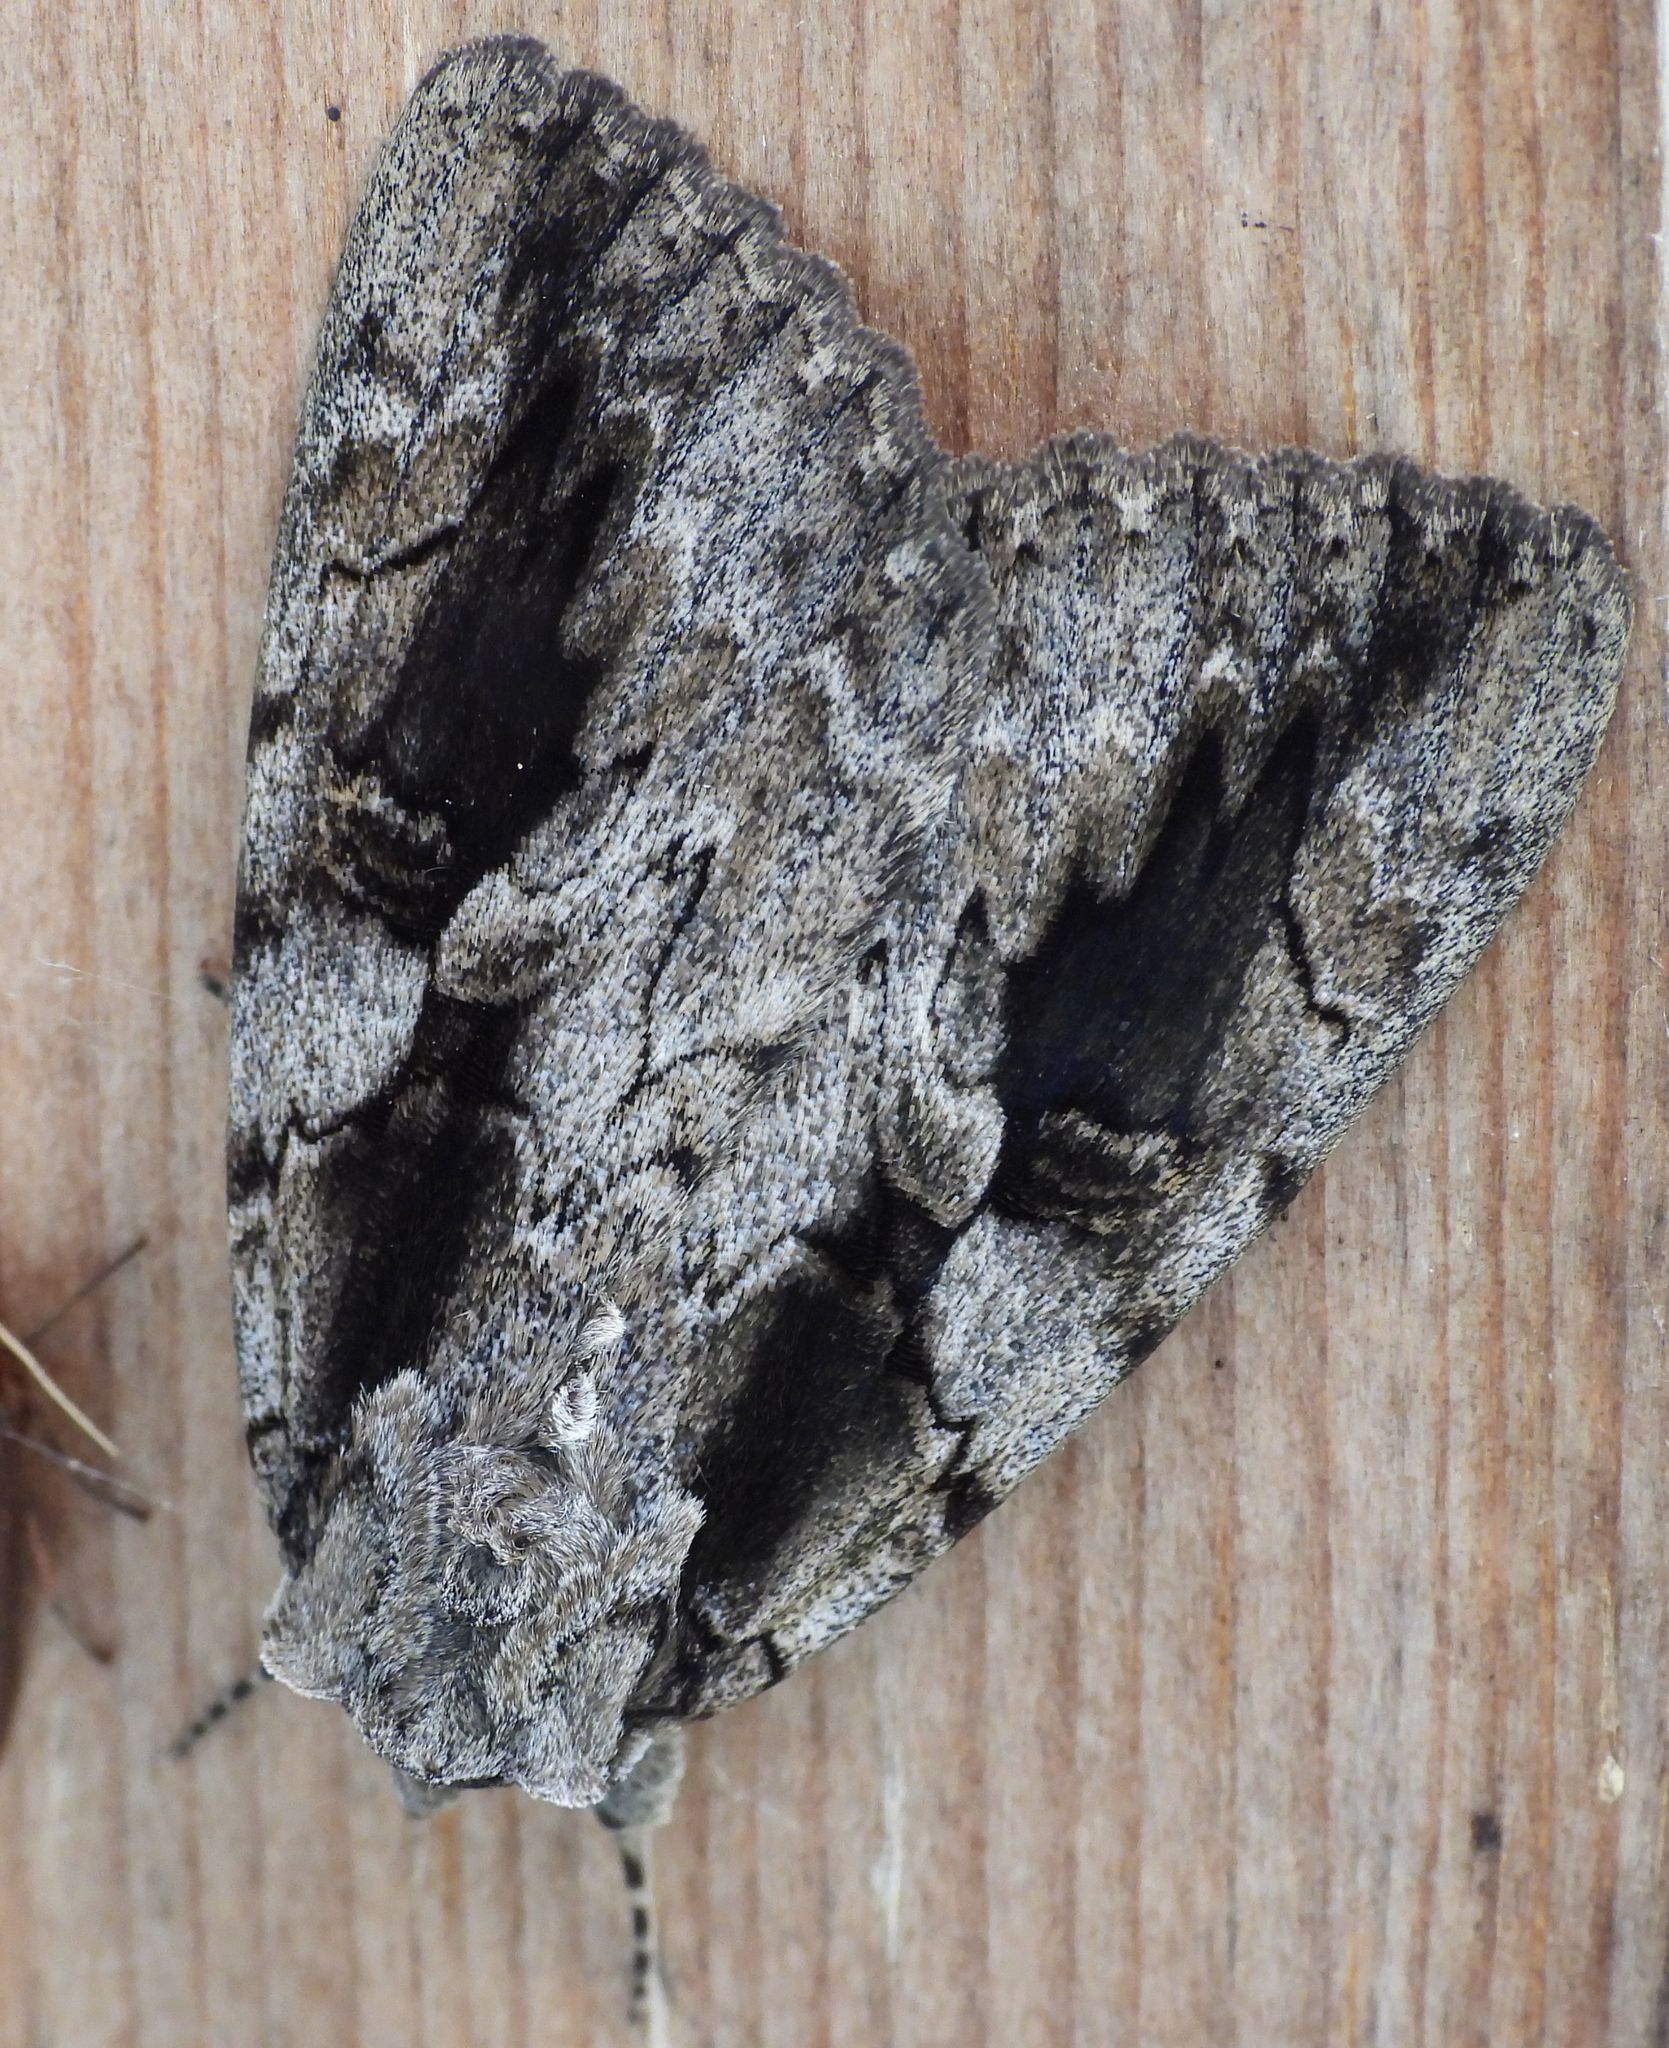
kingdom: Animalia
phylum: Arthropoda
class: Insecta
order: Lepidoptera
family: Erebidae
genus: Catocala
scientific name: Catocala amatrix
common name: Sweetheart underwing
